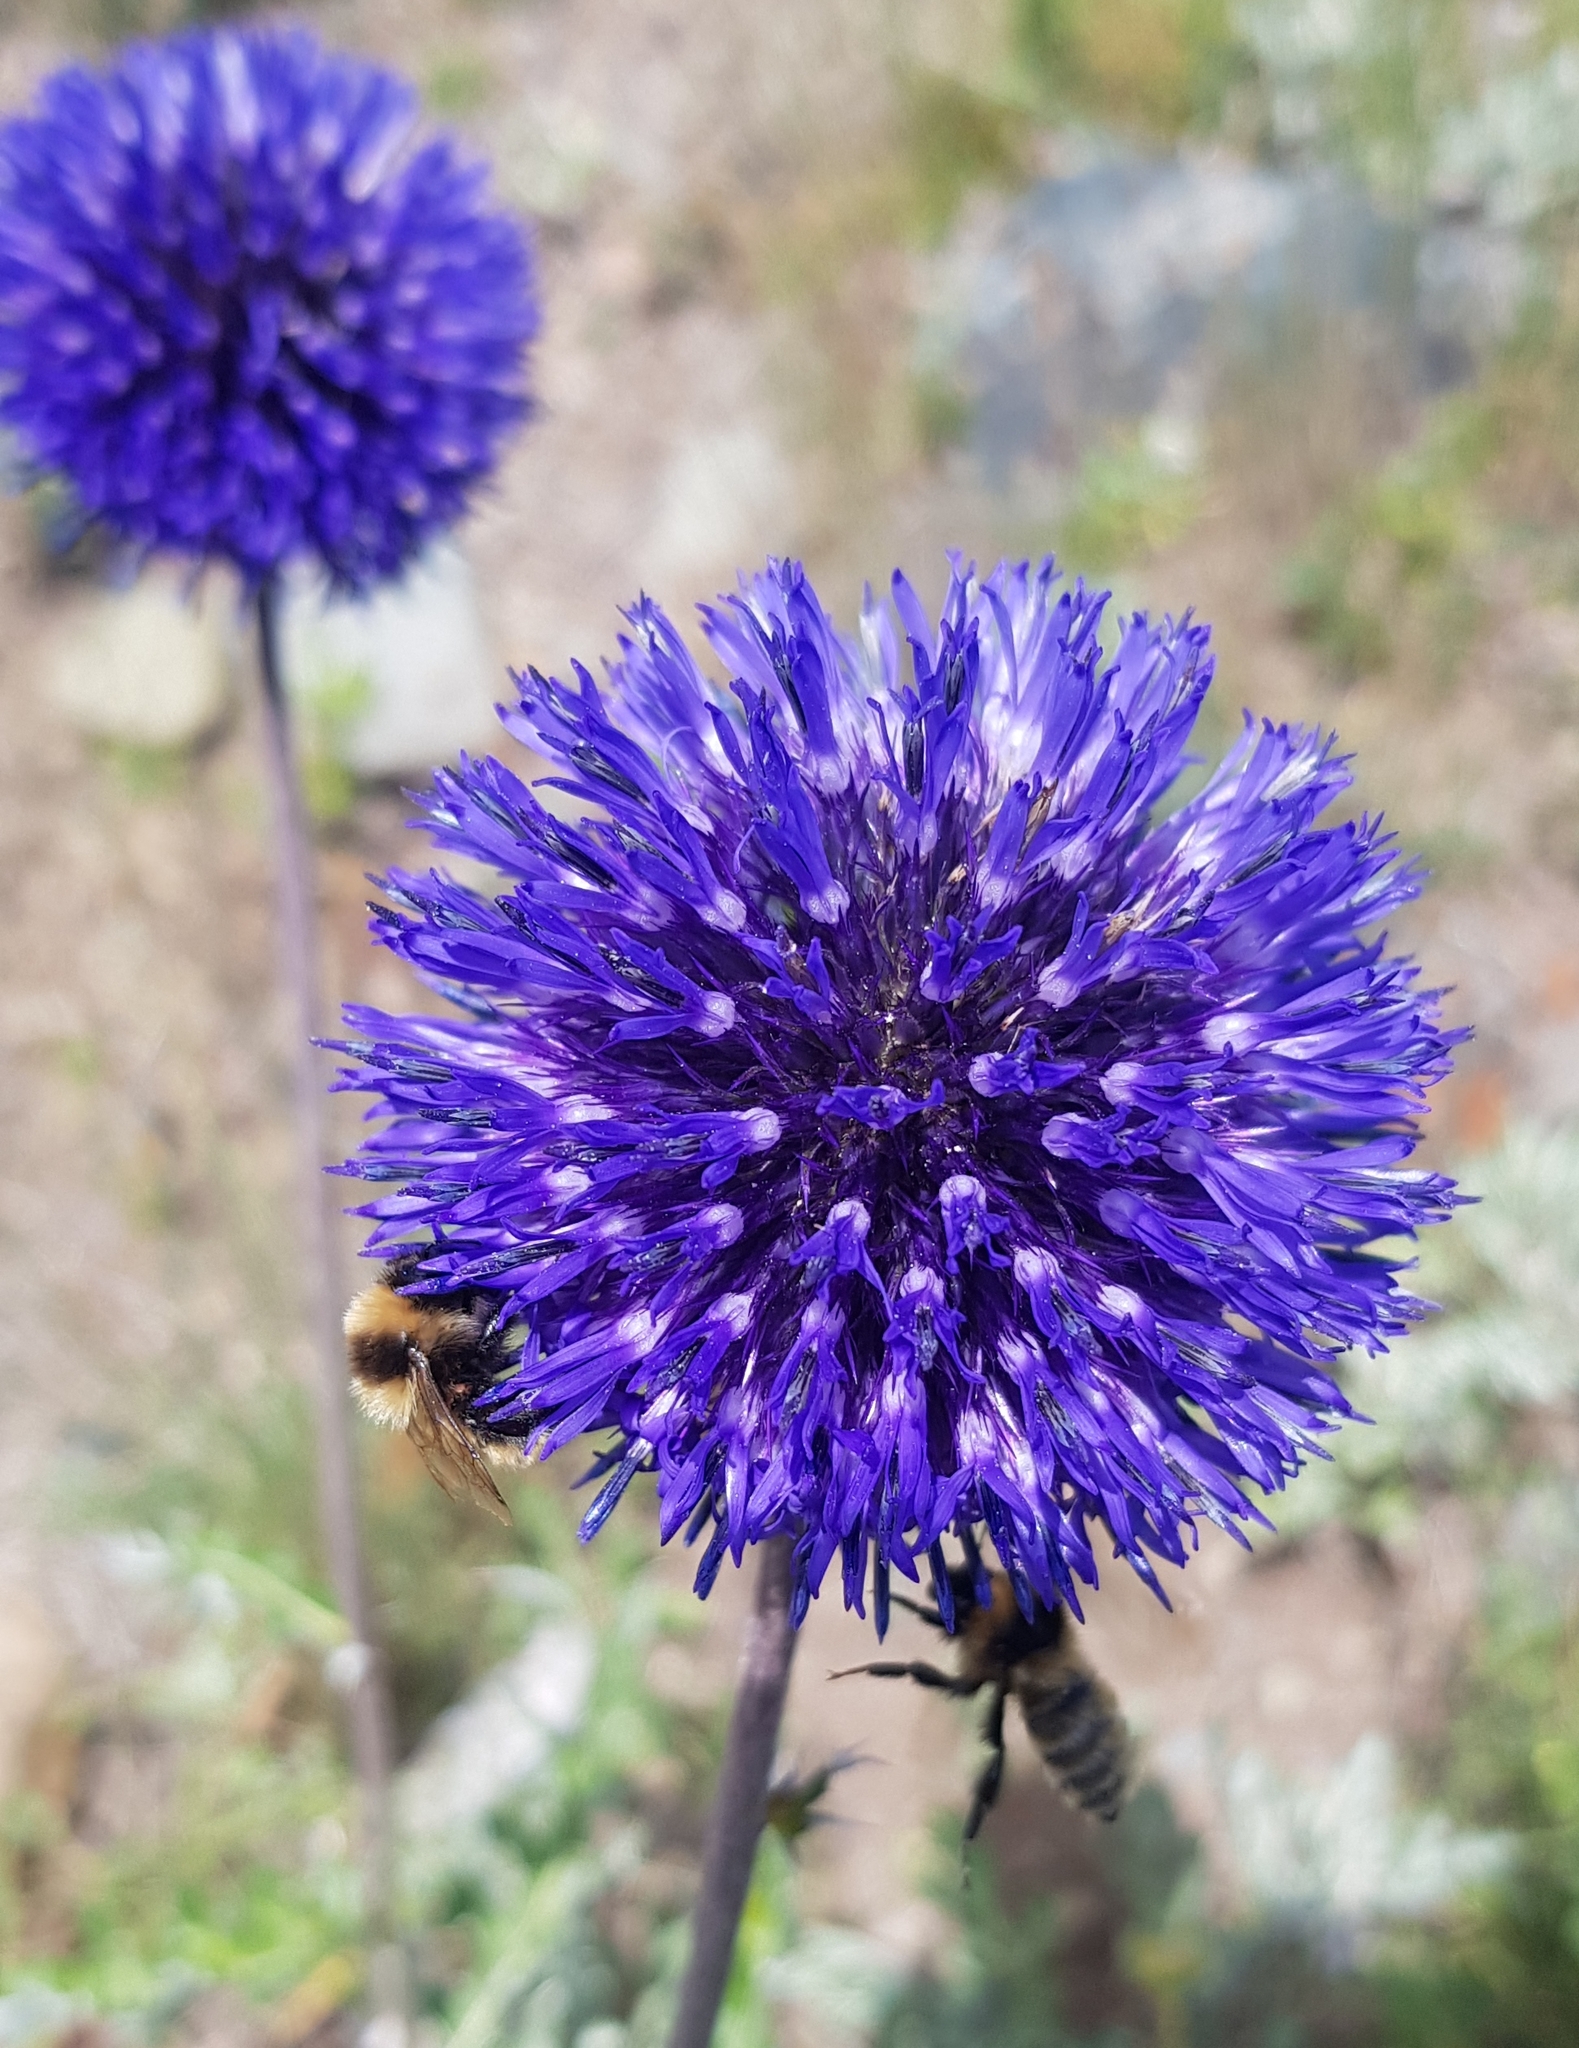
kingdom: Plantae
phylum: Tracheophyta
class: Magnoliopsida
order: Asterales
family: Asteraceae
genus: Echinops
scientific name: Echinops davuricus
